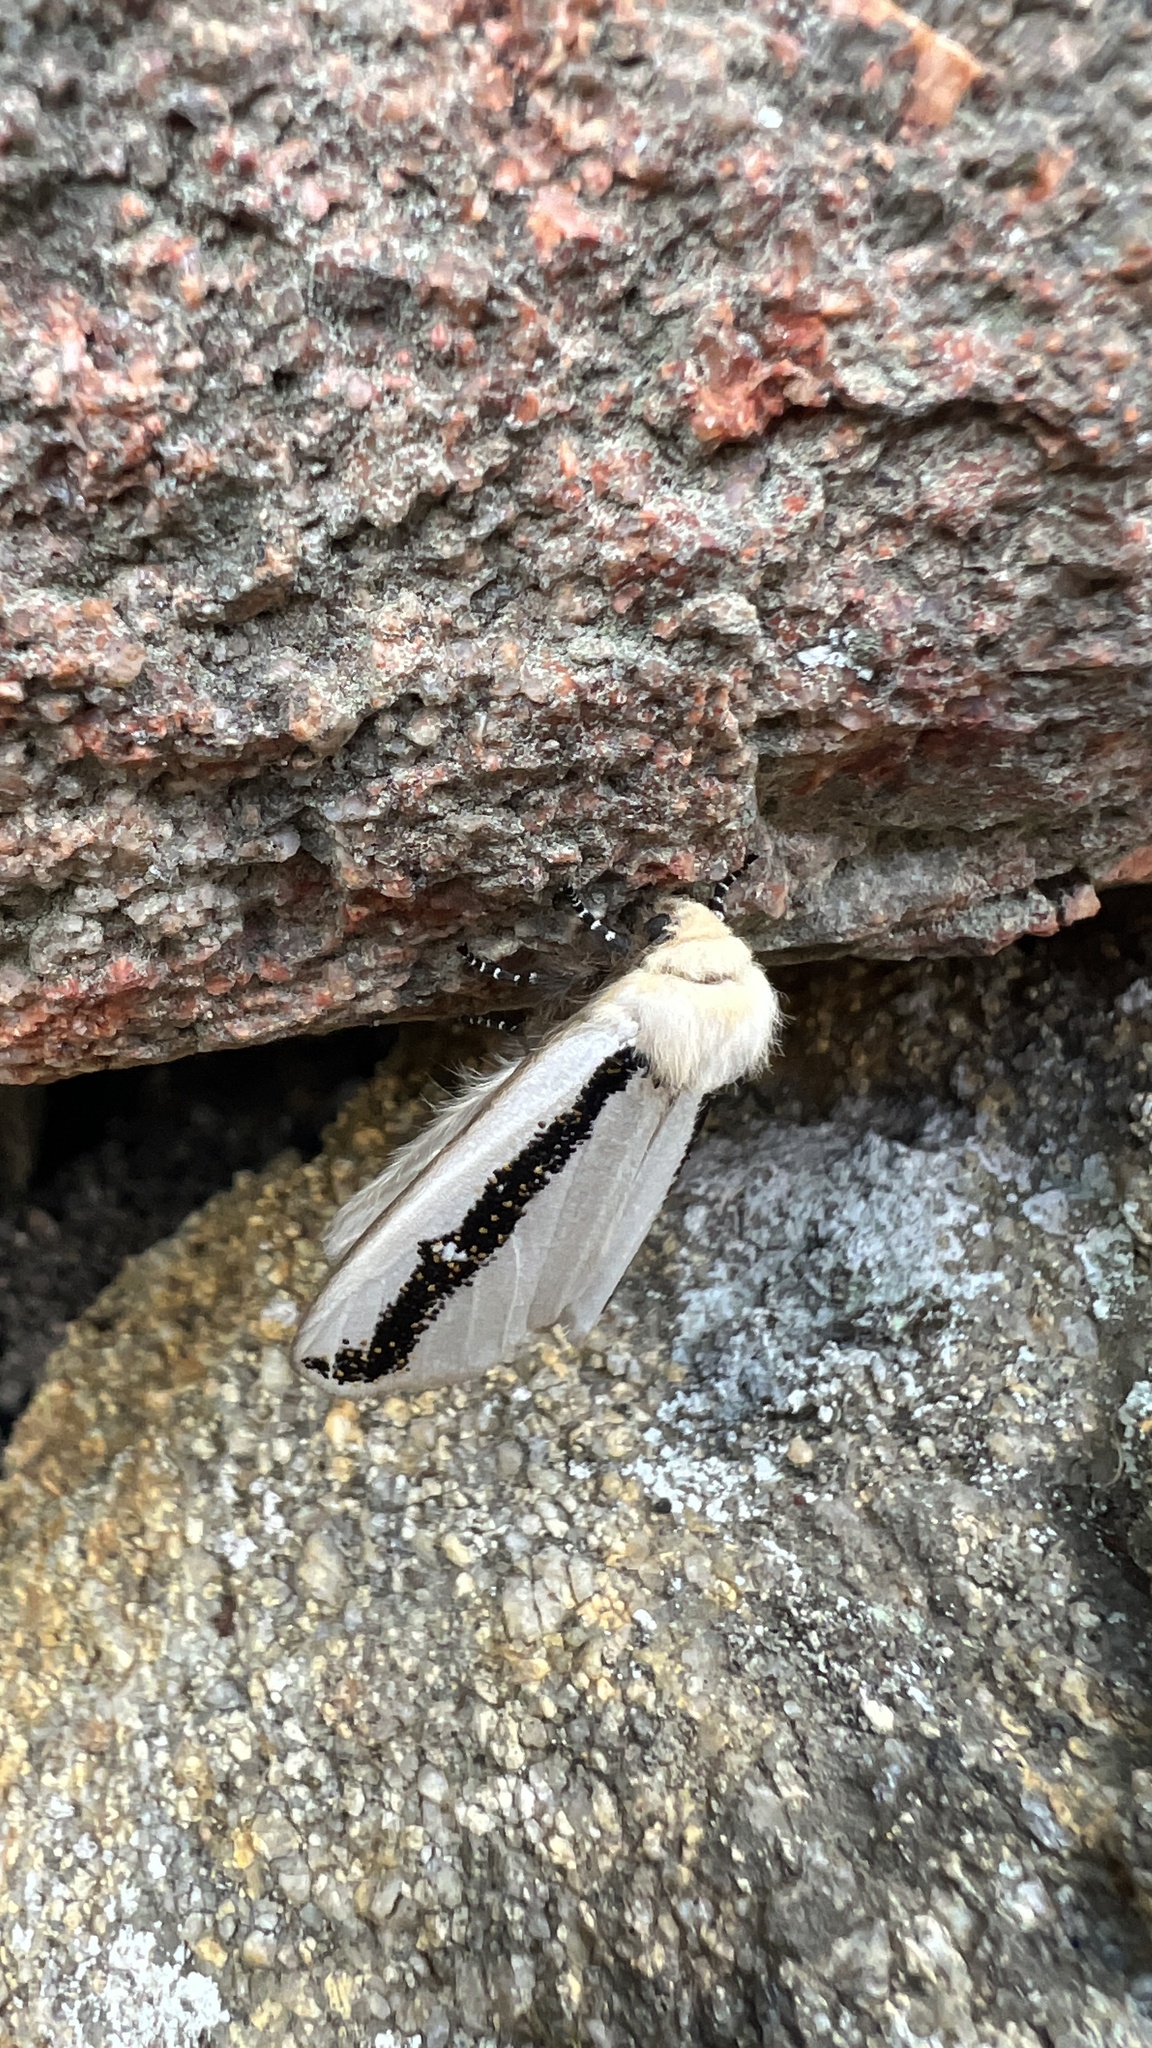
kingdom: Animalia
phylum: Arthropoda
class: Insecta
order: Lepidoptera
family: Oenosandridae
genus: Oenosandra
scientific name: Oenosandra boisduvalii
